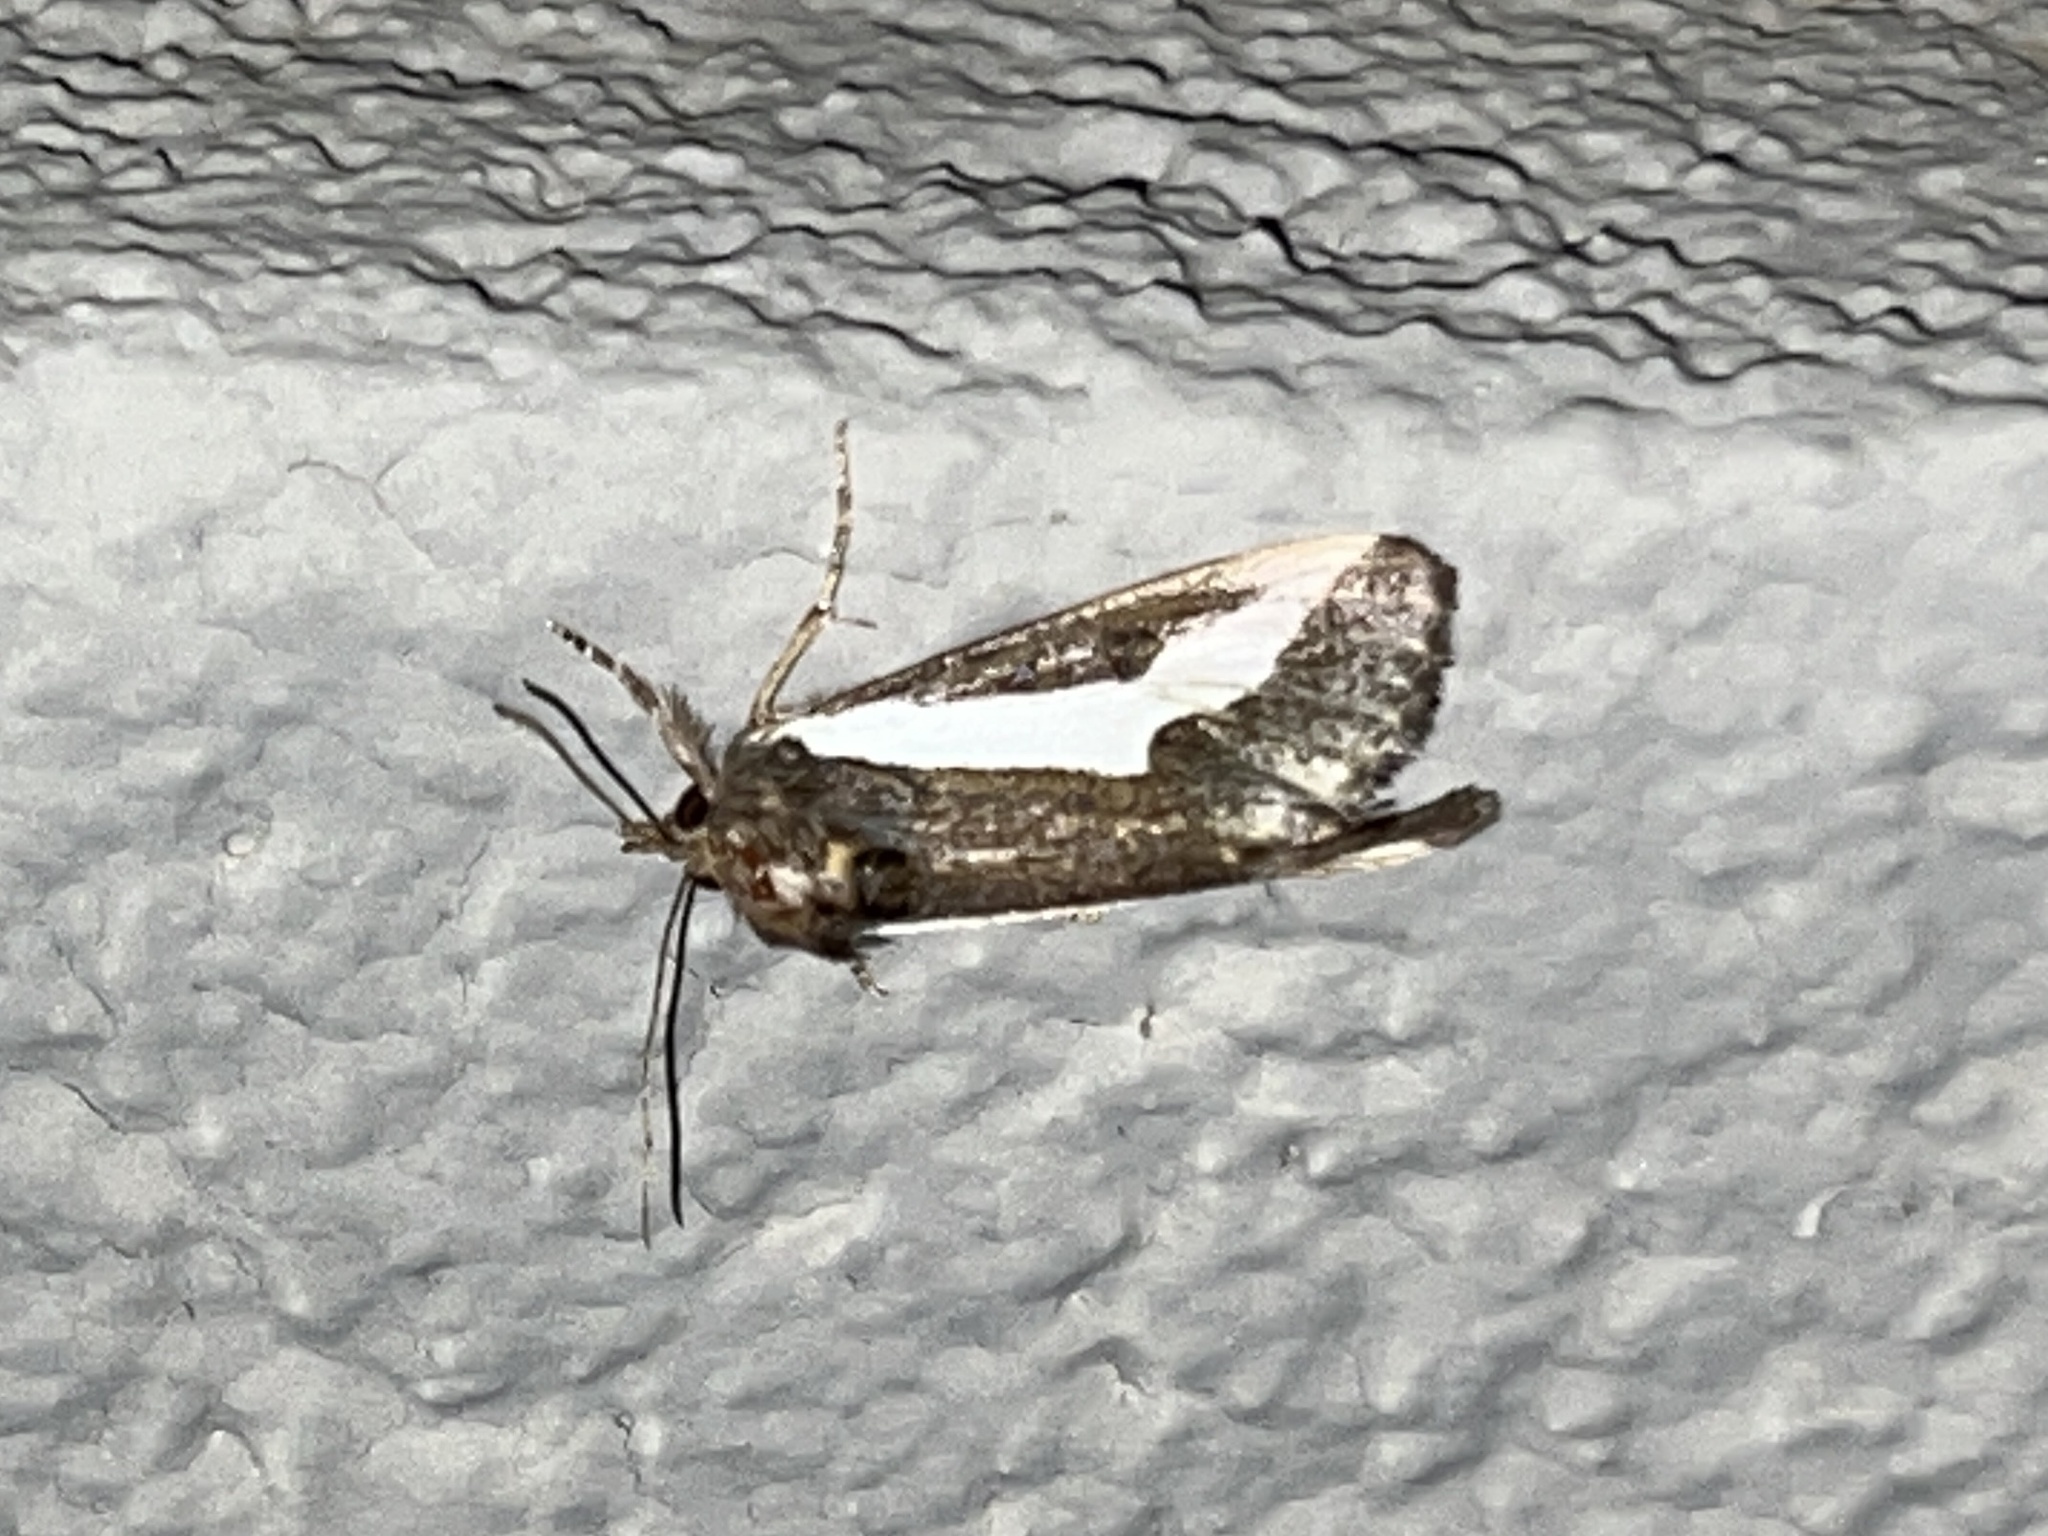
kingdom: Animalia
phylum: Arthropoda
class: Insecta
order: Lepidoptera
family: Noctuidae
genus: Euscirrhopterus
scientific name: Euscirrhopterus cosyra
